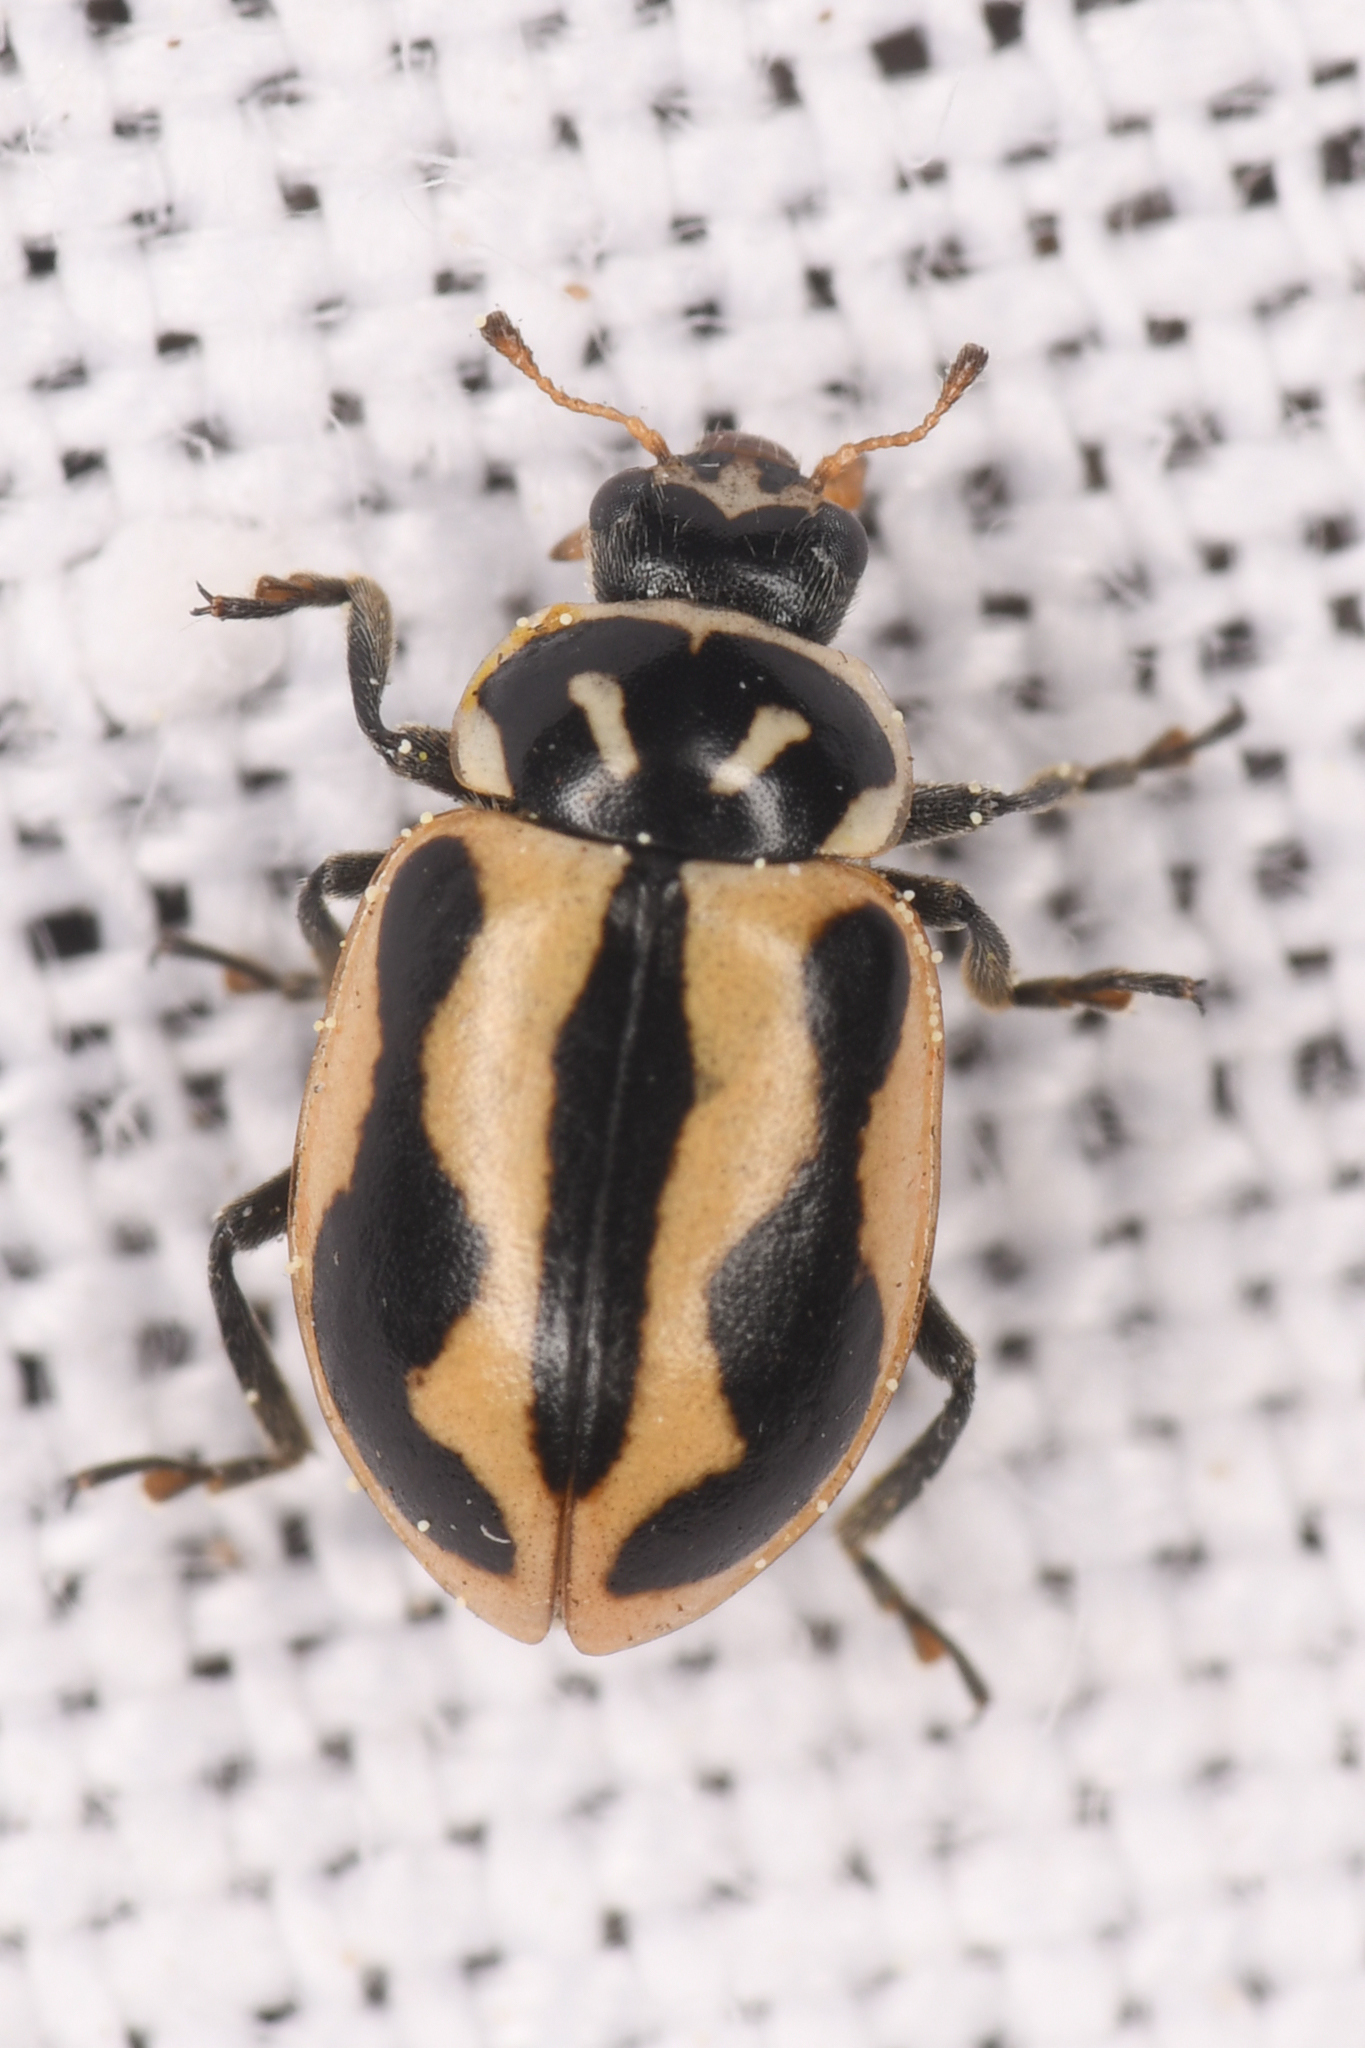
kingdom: Animalia
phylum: Arthropoda
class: Insecta
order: Coleoptera
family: Coccinellidae
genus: Hippodamia
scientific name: Hippodamia sinuata
